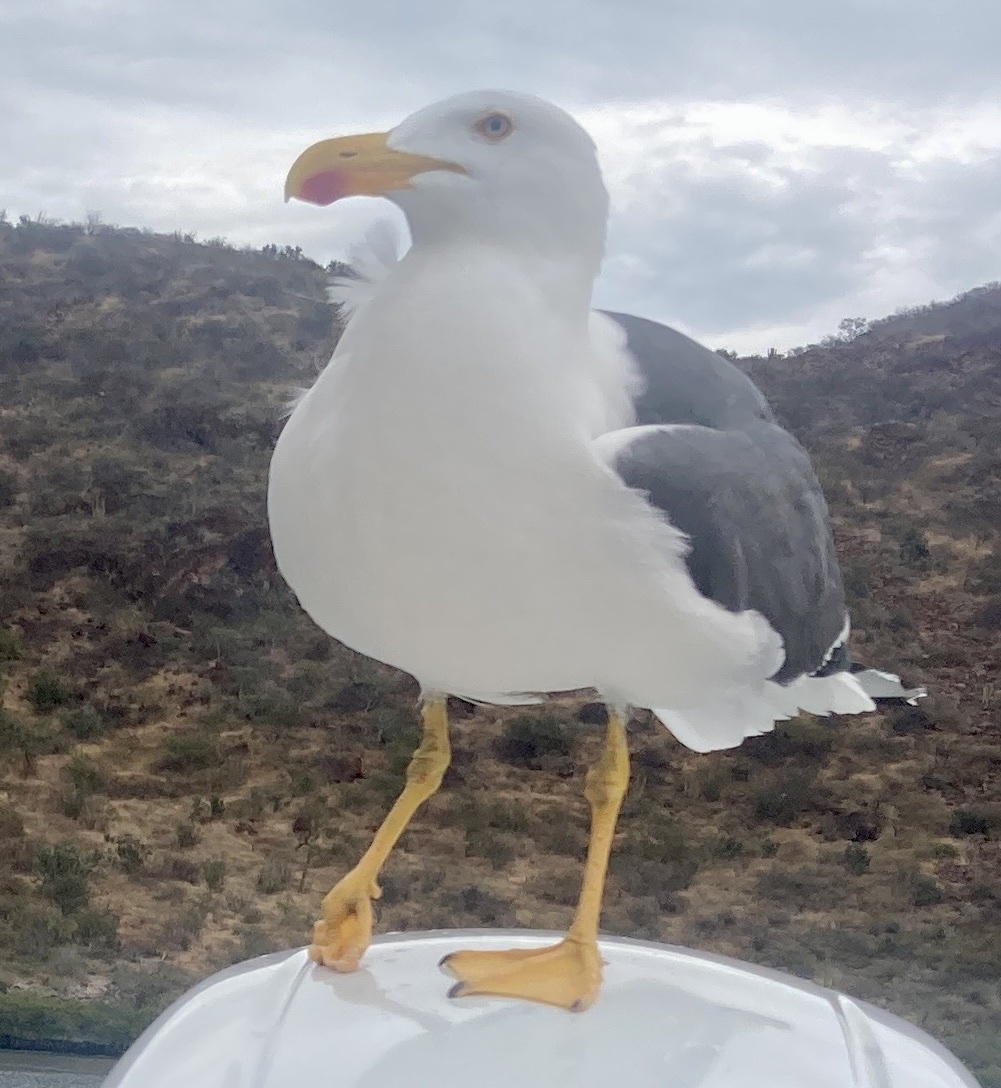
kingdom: Animalia
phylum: Chordata
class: Aves
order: Charadriiformes
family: Laridae
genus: Larus
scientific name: Larus livens
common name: Yellow-footed gull
